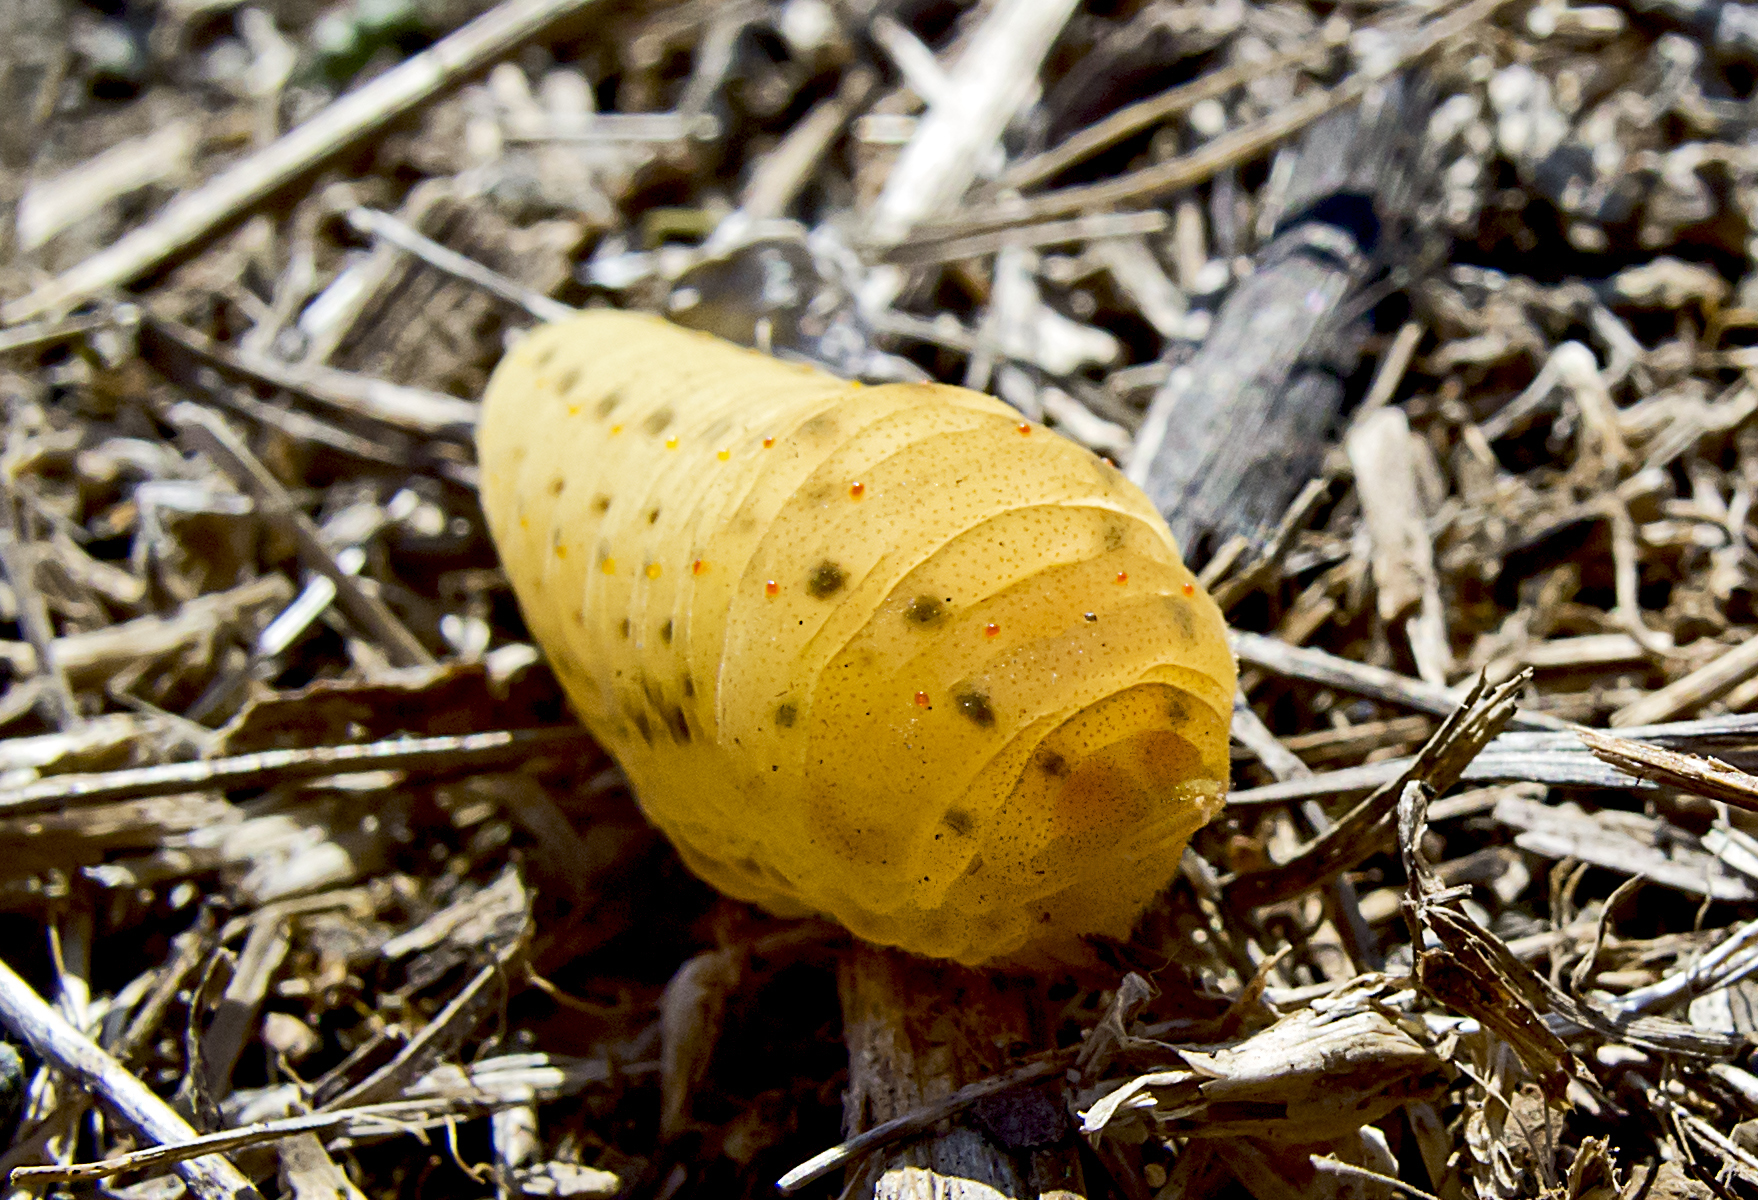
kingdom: Animalia
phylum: Arthropoda
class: Insecta
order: Lepidoptera
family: Papilionidae
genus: Iphiclides
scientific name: Iphiclides podalirius
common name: Scarce swallowtail
